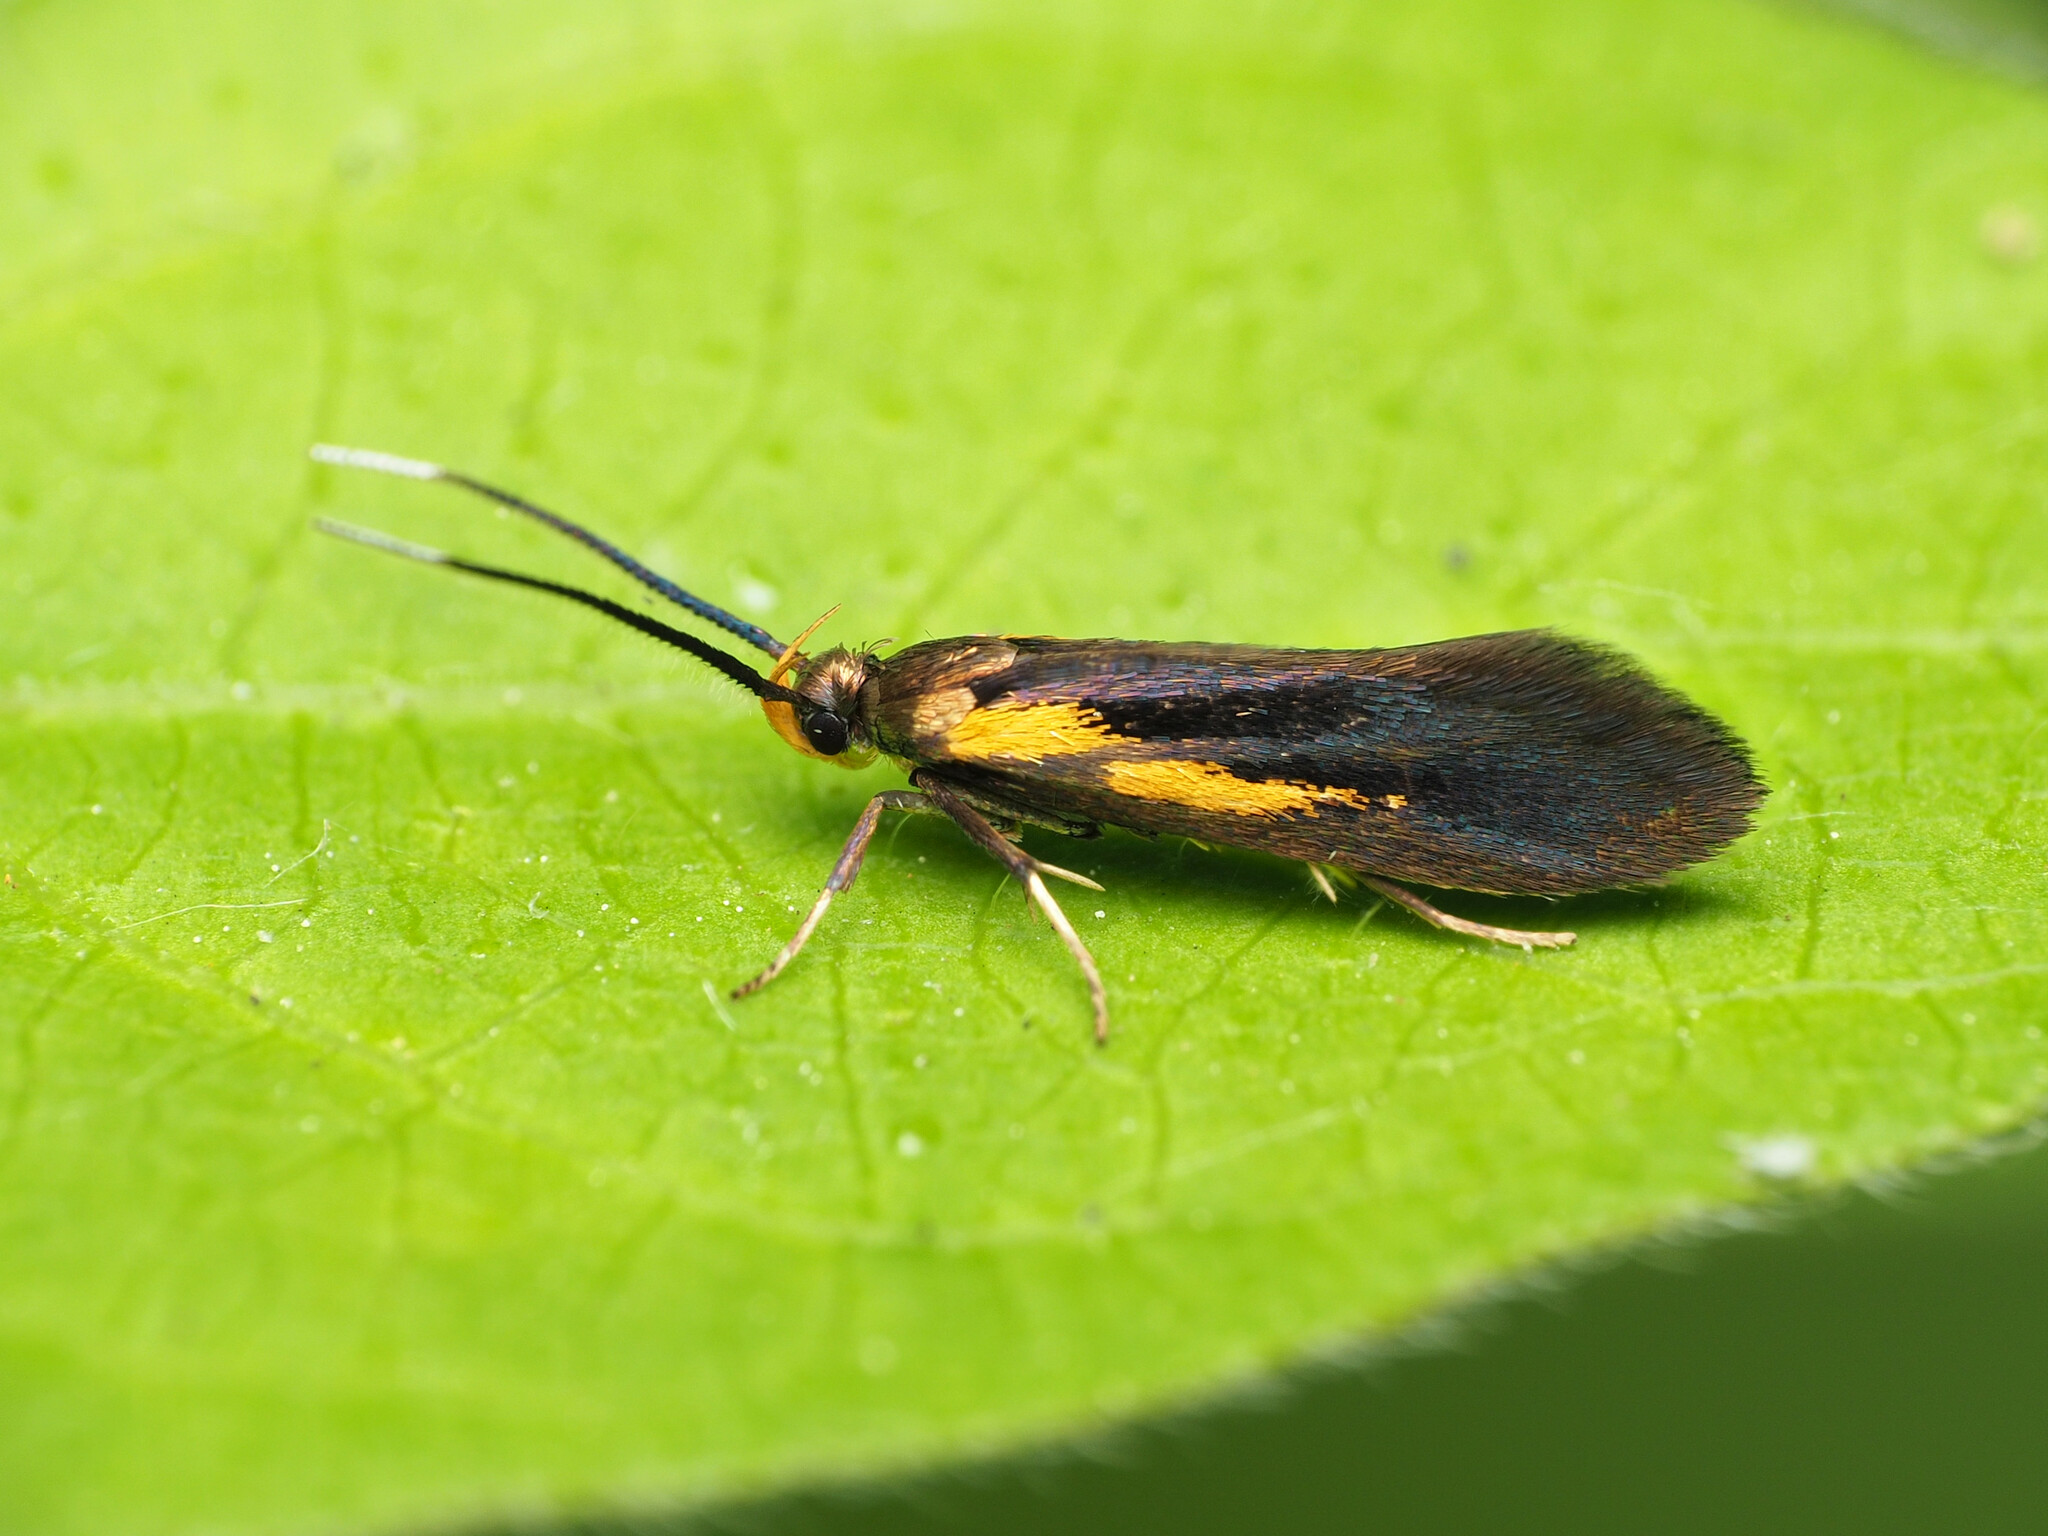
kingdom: Animalia
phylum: Arthropoda
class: Insecta
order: Lepidoptera
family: Oecophoridae
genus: Mathildana
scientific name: Mathildana newmanella
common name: Newman's mathildana moth
